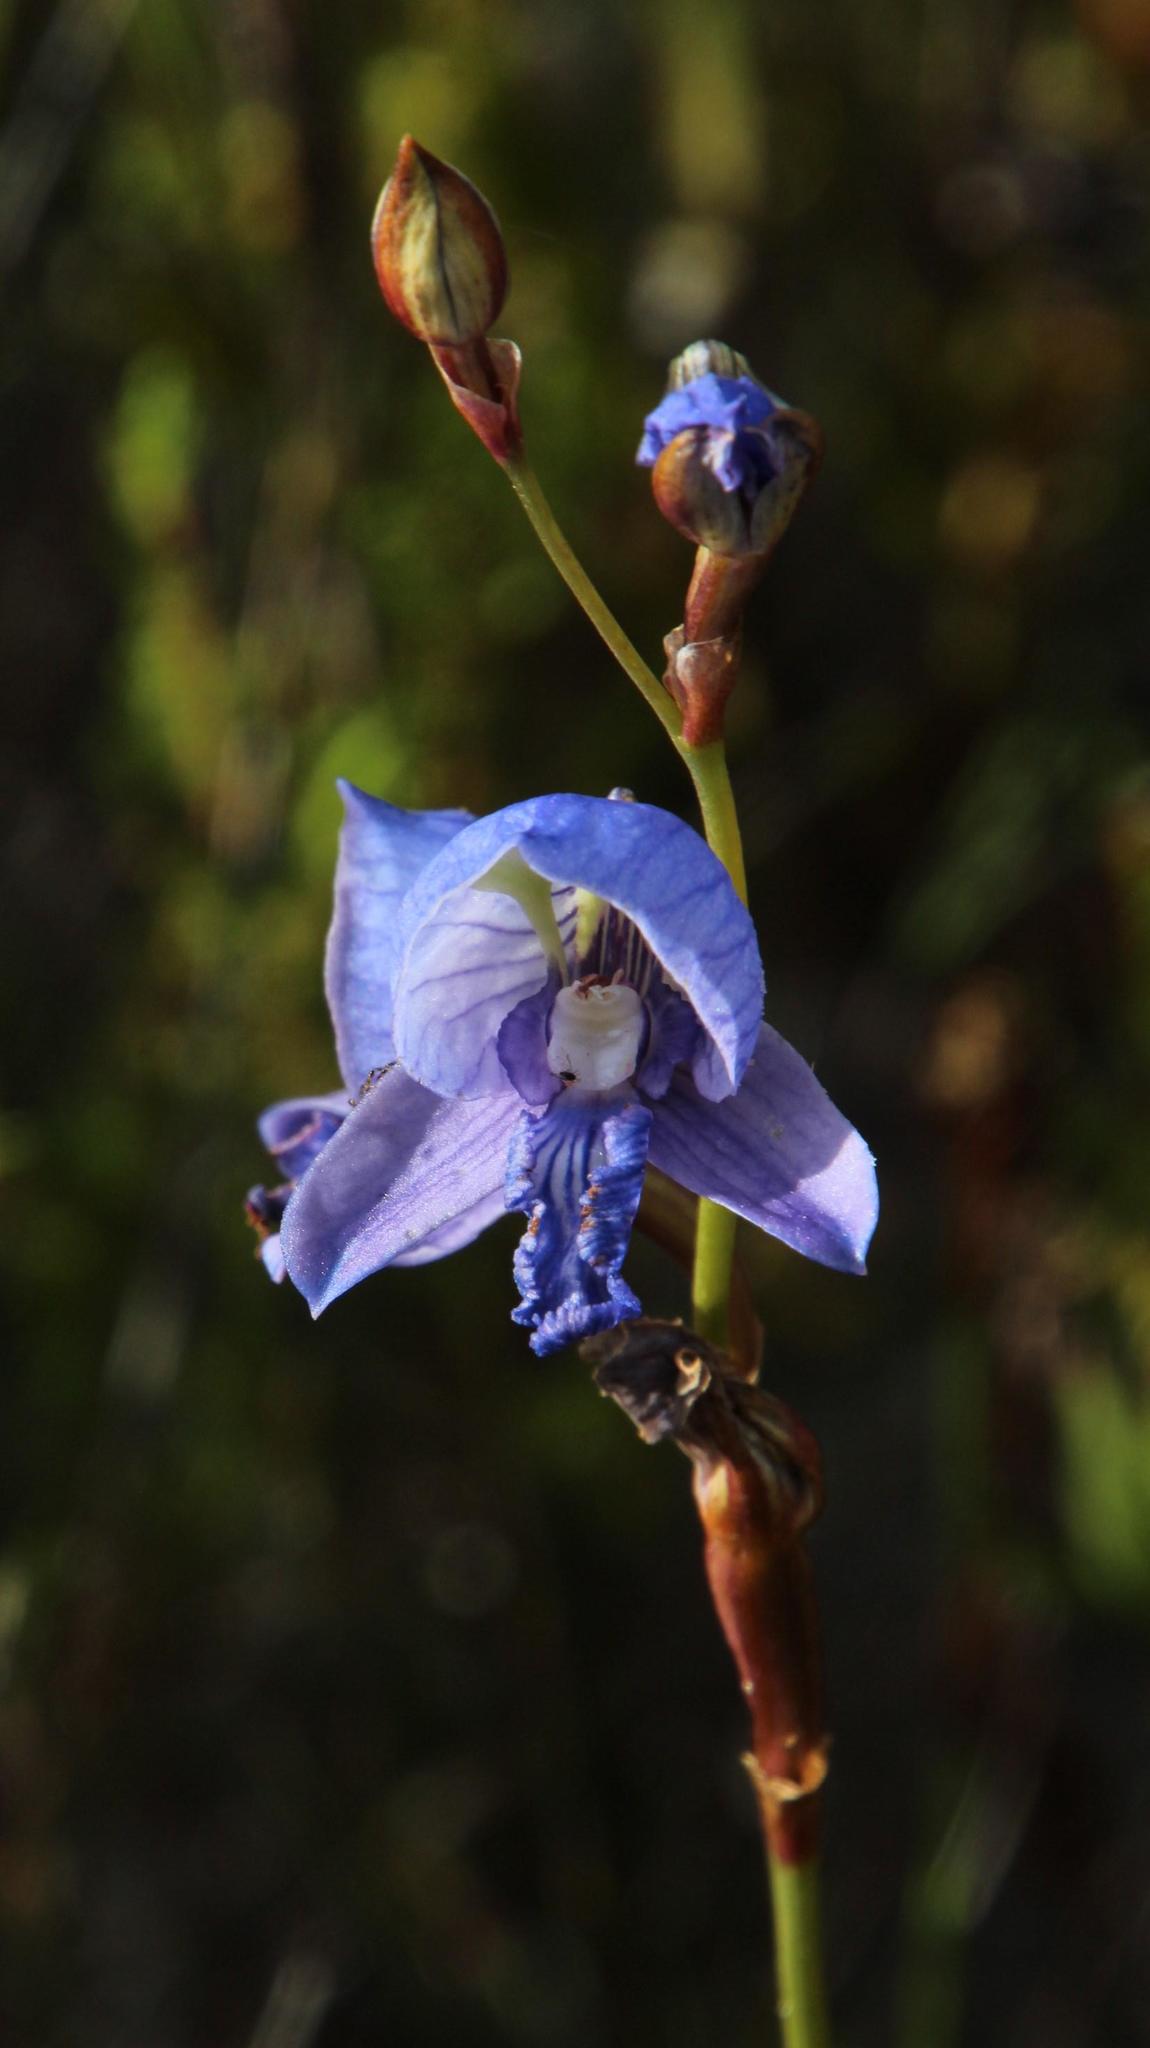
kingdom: Plantae
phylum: Tracheophyta
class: Liliopsida
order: Asparagales
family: Orchidaceae
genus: Disa
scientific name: Disa purpurascens
